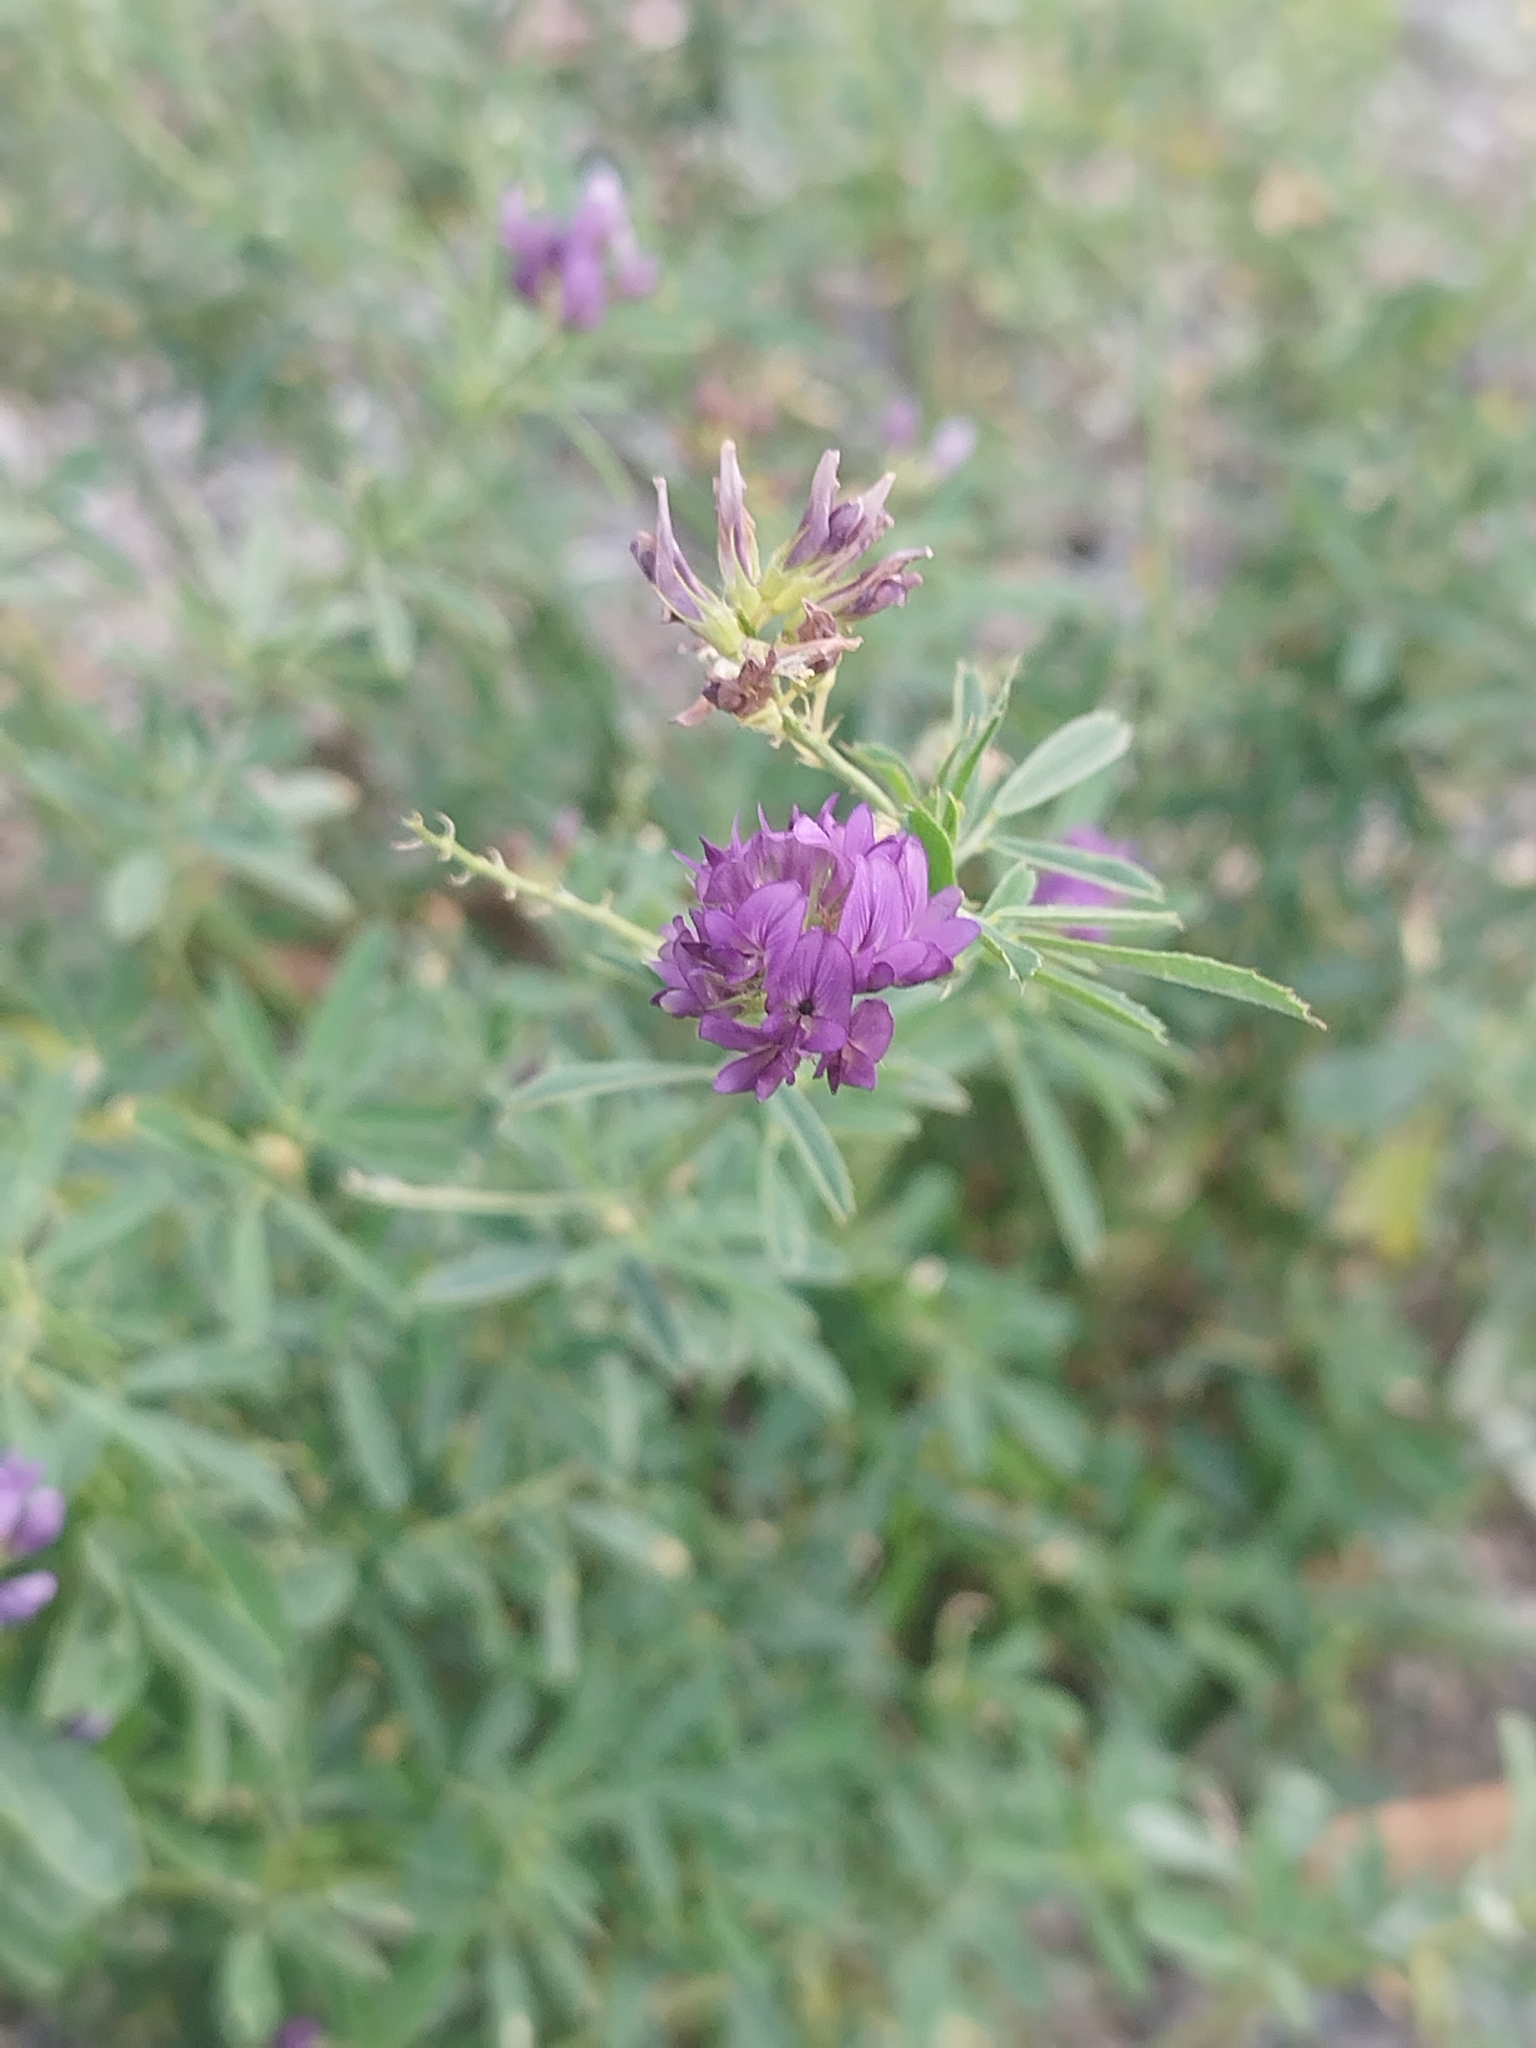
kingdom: Plantae
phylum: Tracheophyta
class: Magnoliopsida
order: Fabales
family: Fabaceae
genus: Medicago
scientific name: Medicago sativa
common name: Alfalfa
